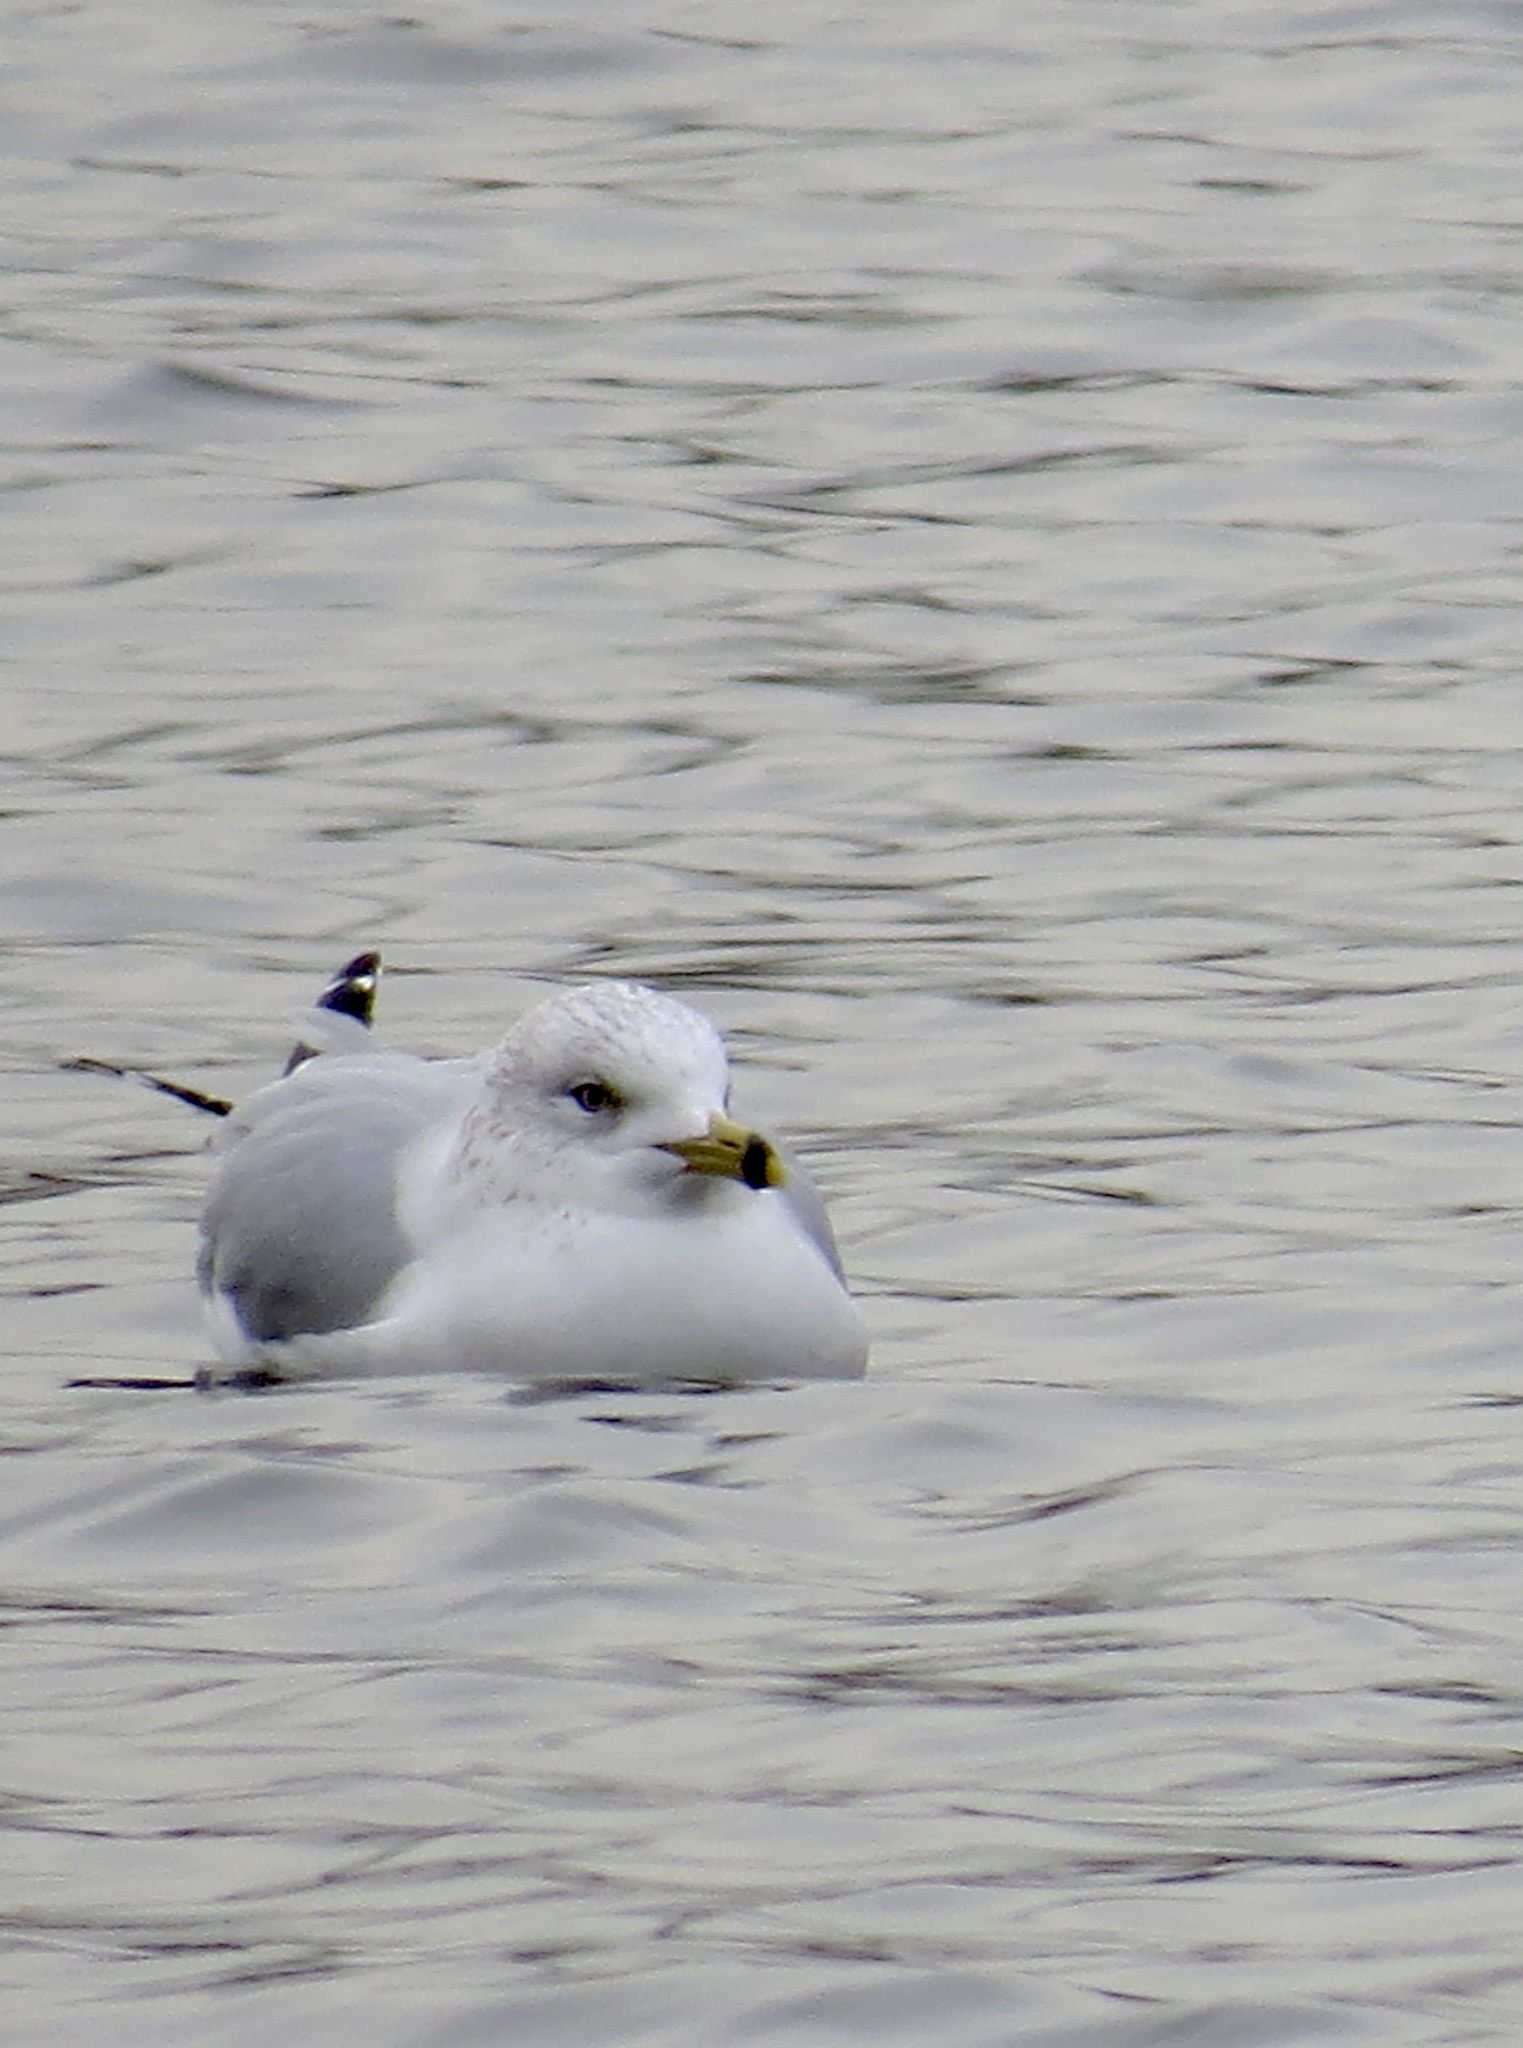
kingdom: Animalia
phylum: Chordata
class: Aves
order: Charadriiformes
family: Laridae
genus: Larus
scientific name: Larus delawarensis
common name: Ring-billed gull
